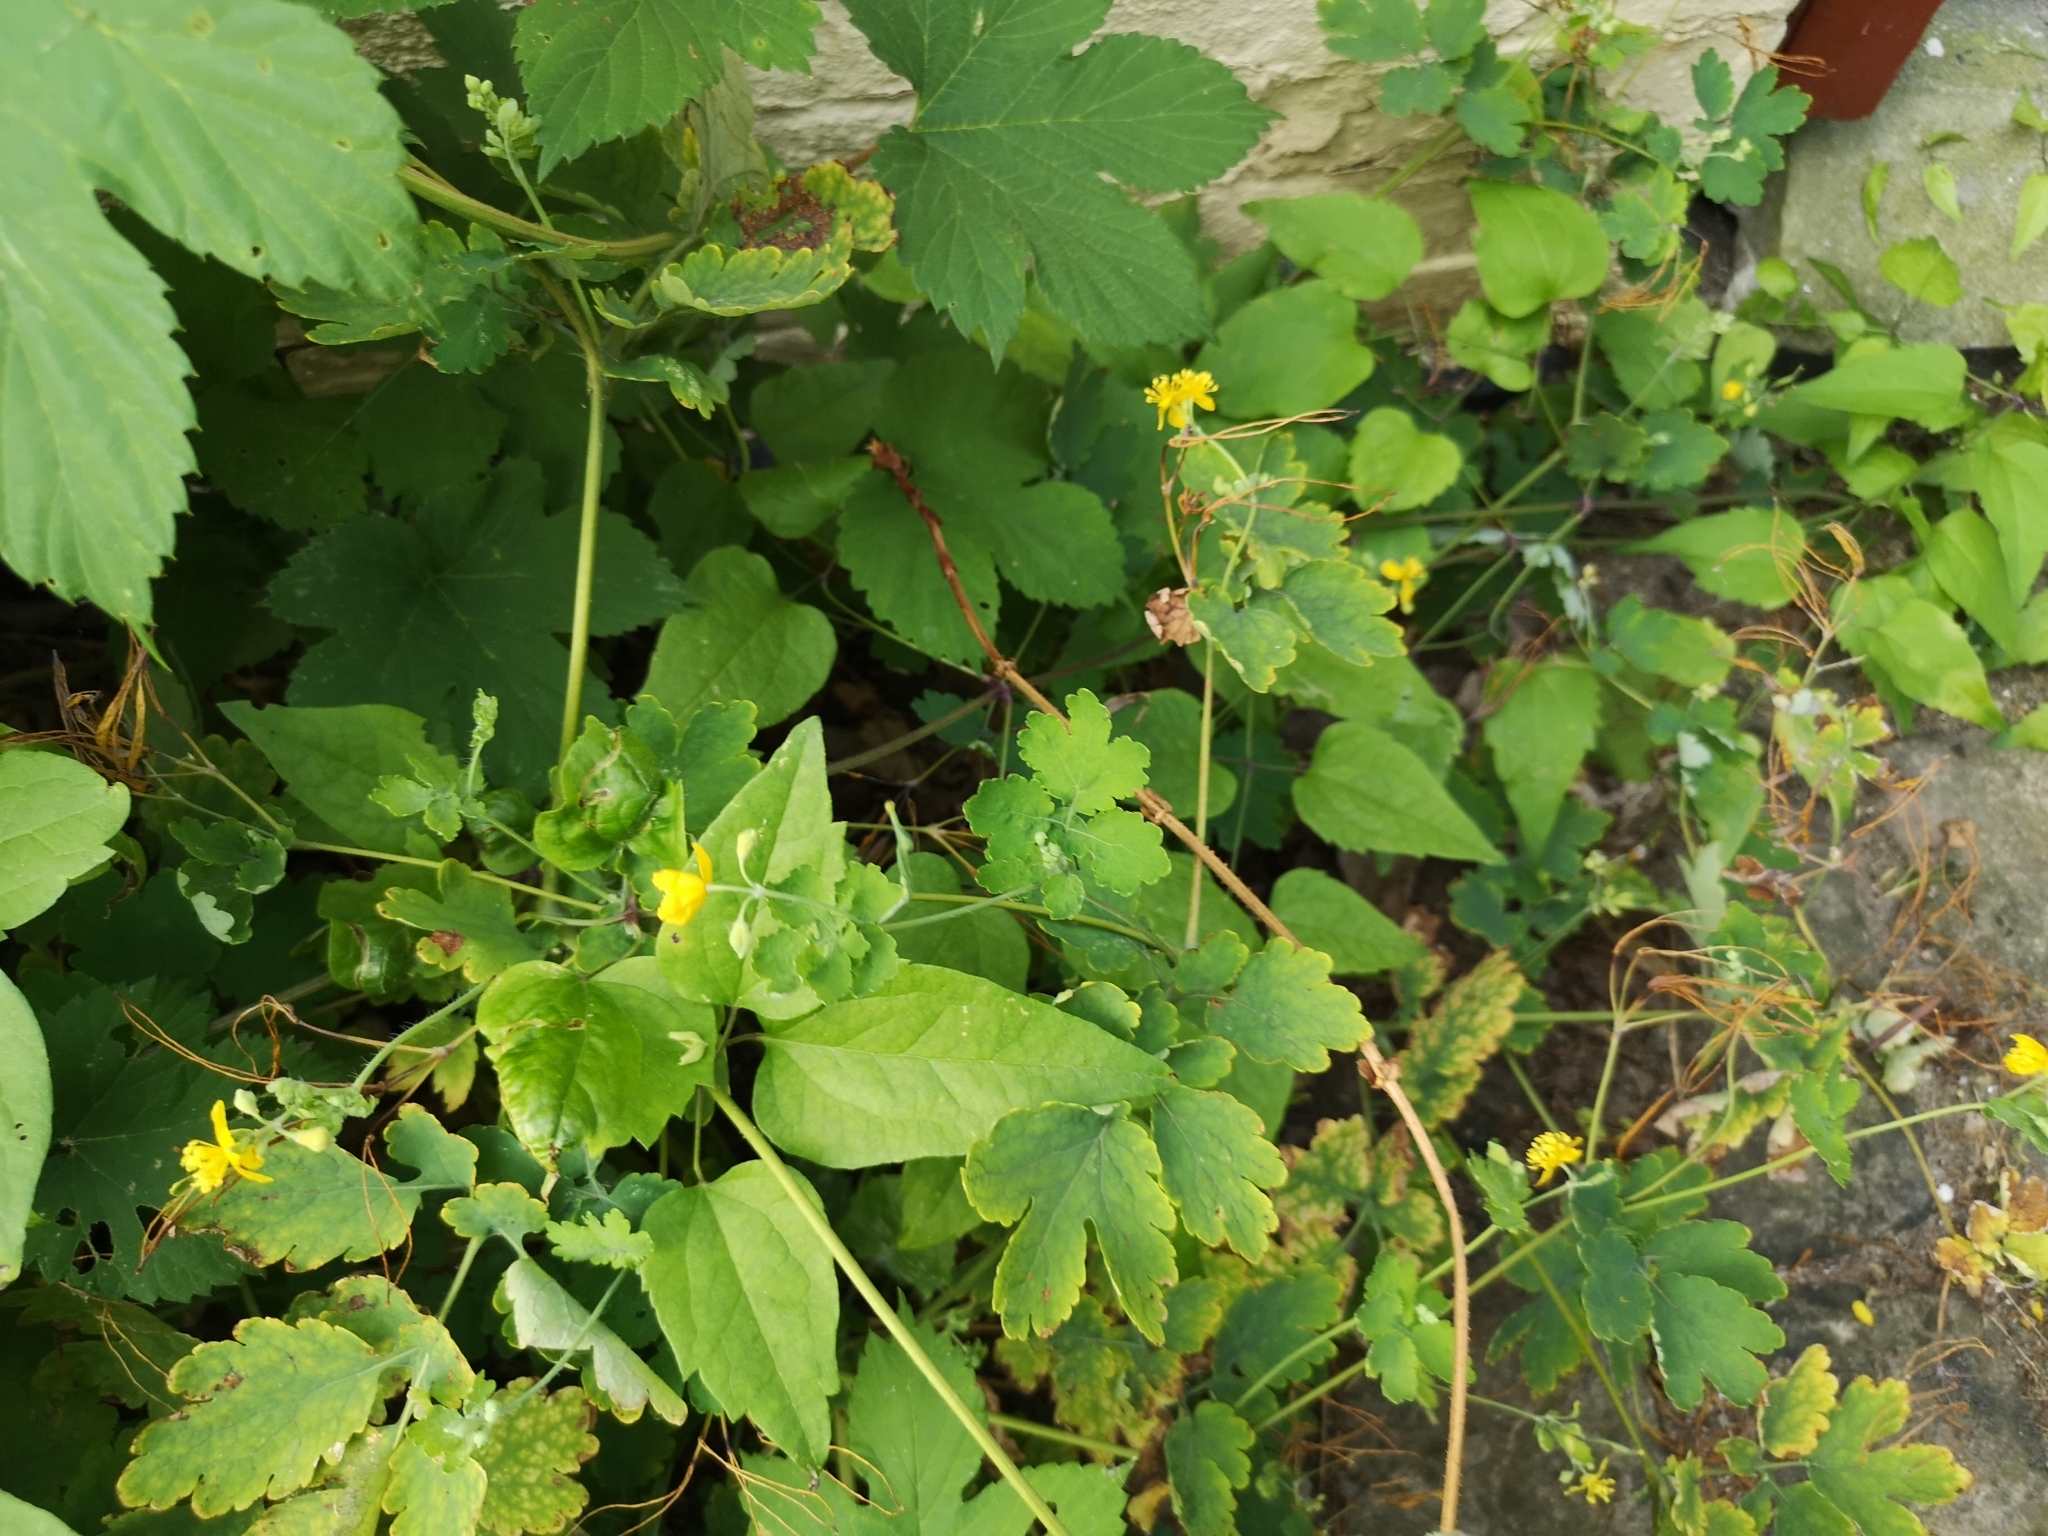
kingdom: Plantae
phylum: Tracheophyta
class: Magnoliopsida
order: Ranunculales
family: Papaveraceae
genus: Chelidonium
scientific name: Chelidonium majus
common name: Greater celandine
